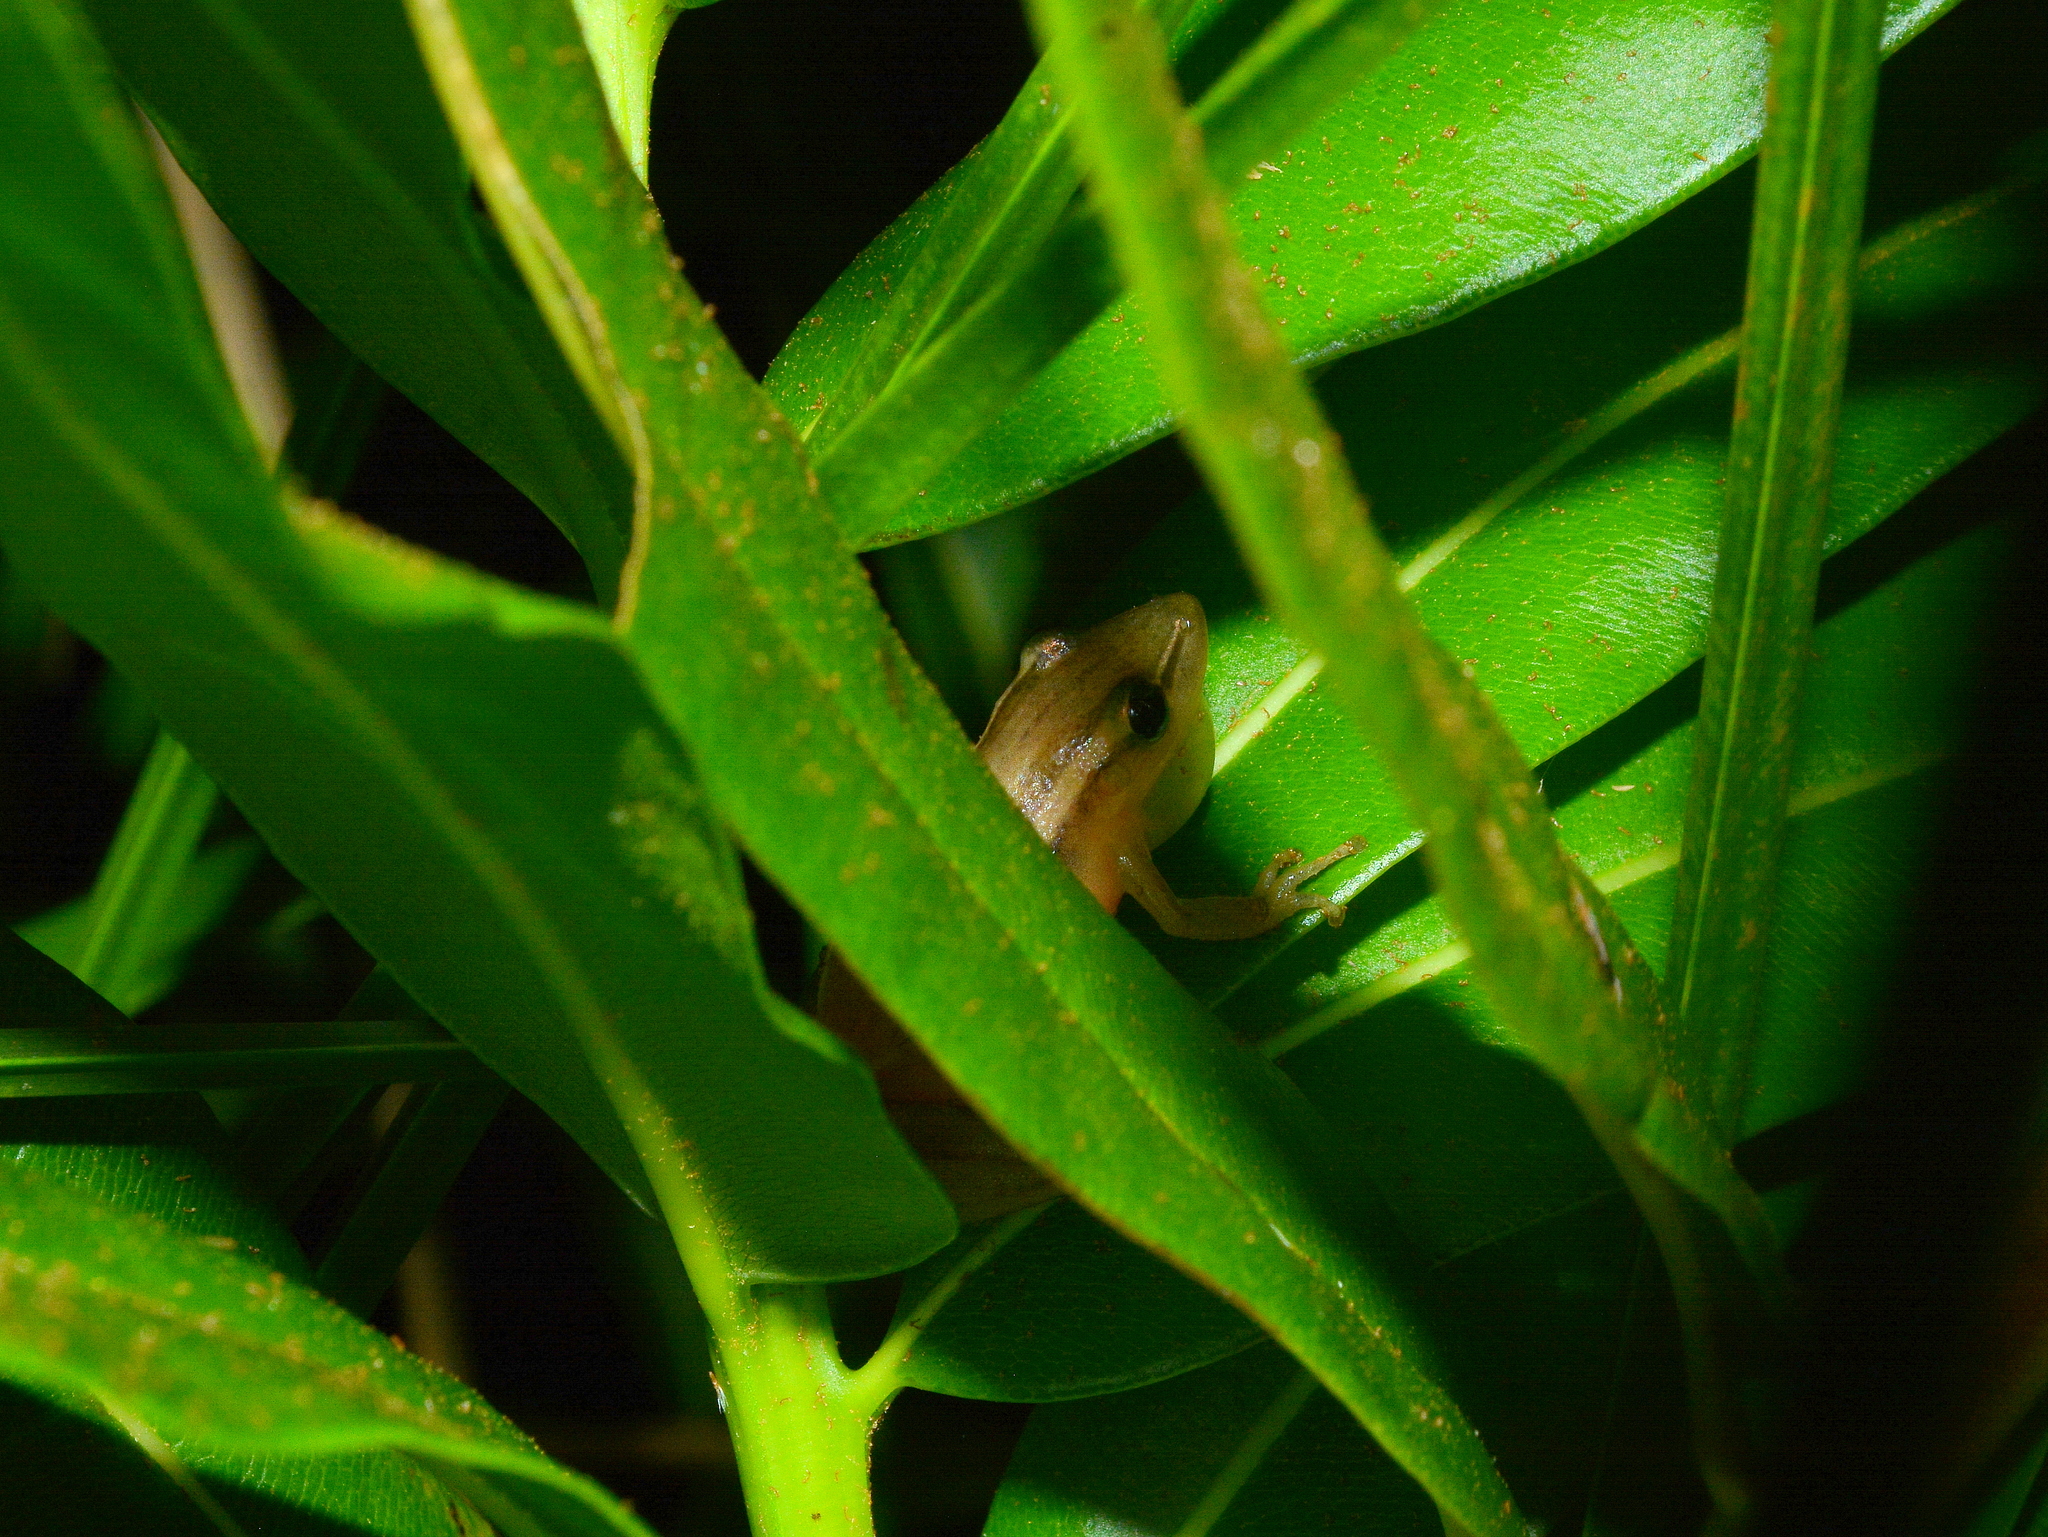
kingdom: Animalia
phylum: Chordata
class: Amphibia
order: Anura
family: Hylidae
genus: Scinax
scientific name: Scinax squalirostris
